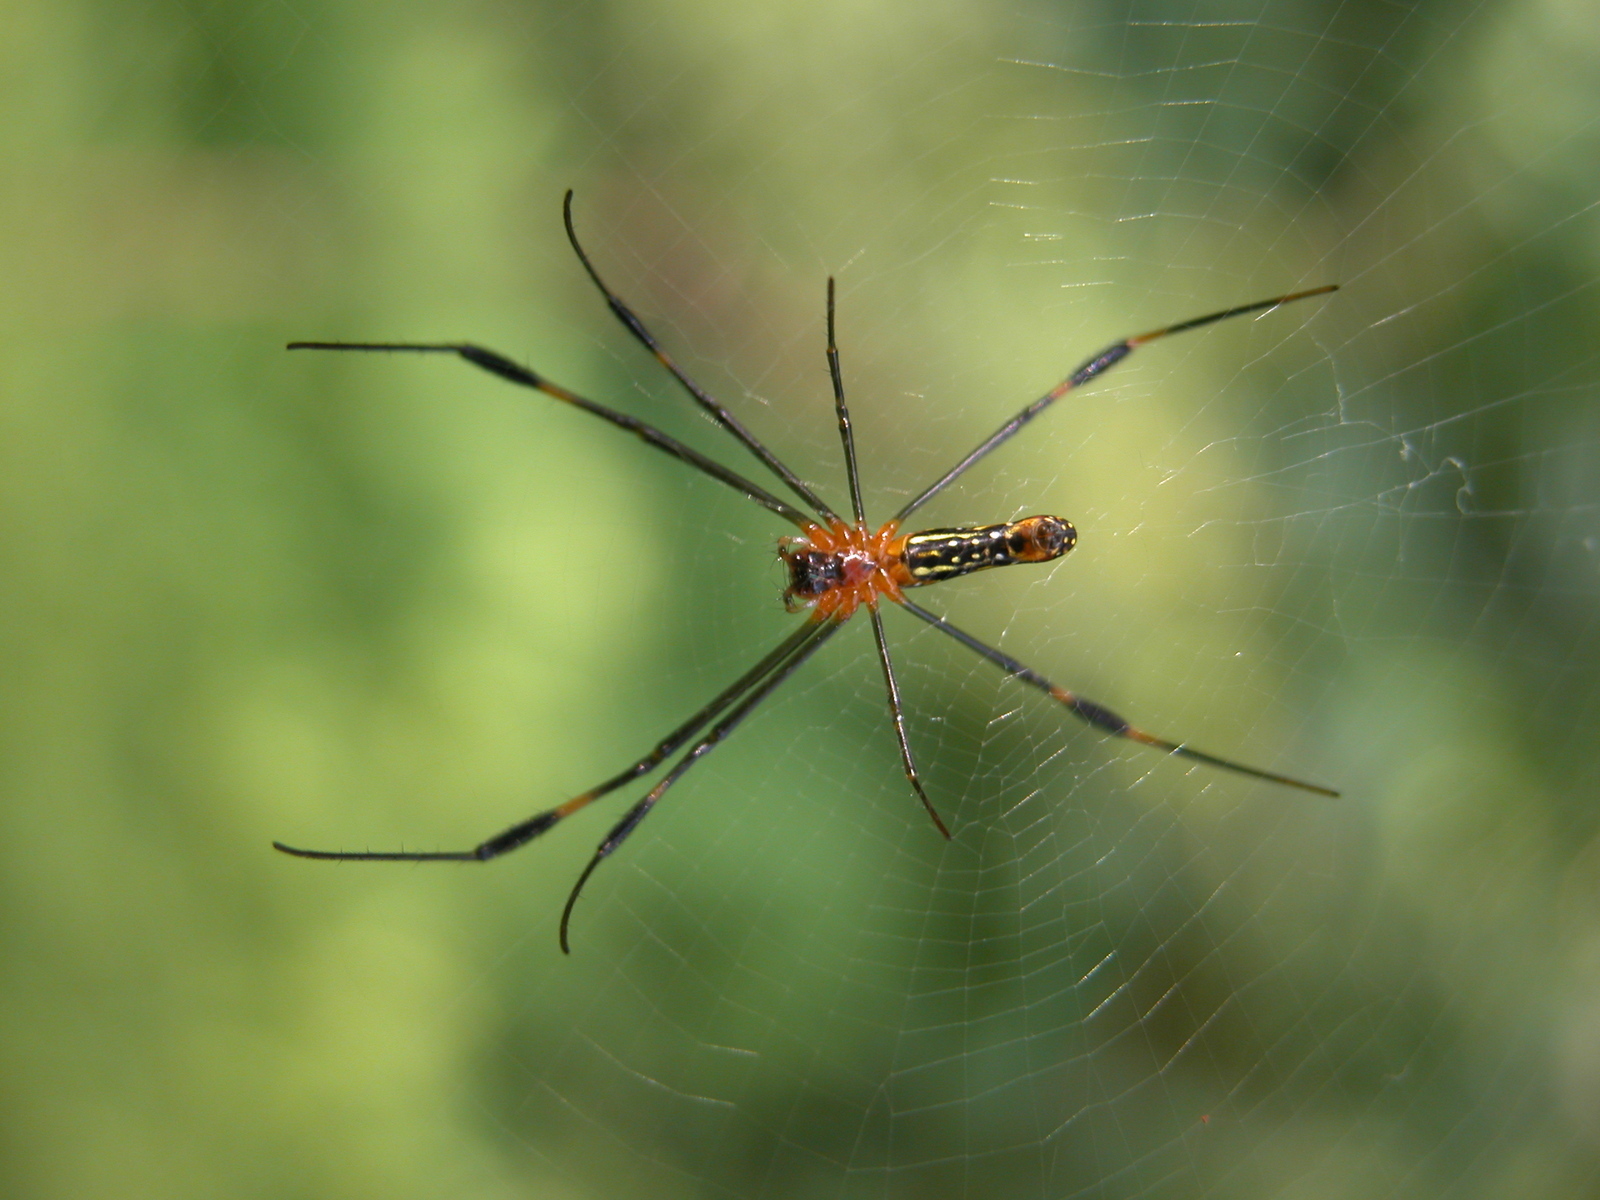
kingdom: Animalia
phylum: Arthropoda
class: Arachnida
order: Araneae
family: Araneidae
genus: Nephila
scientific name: Nephila pilipes
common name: Giant golden orb weaver
